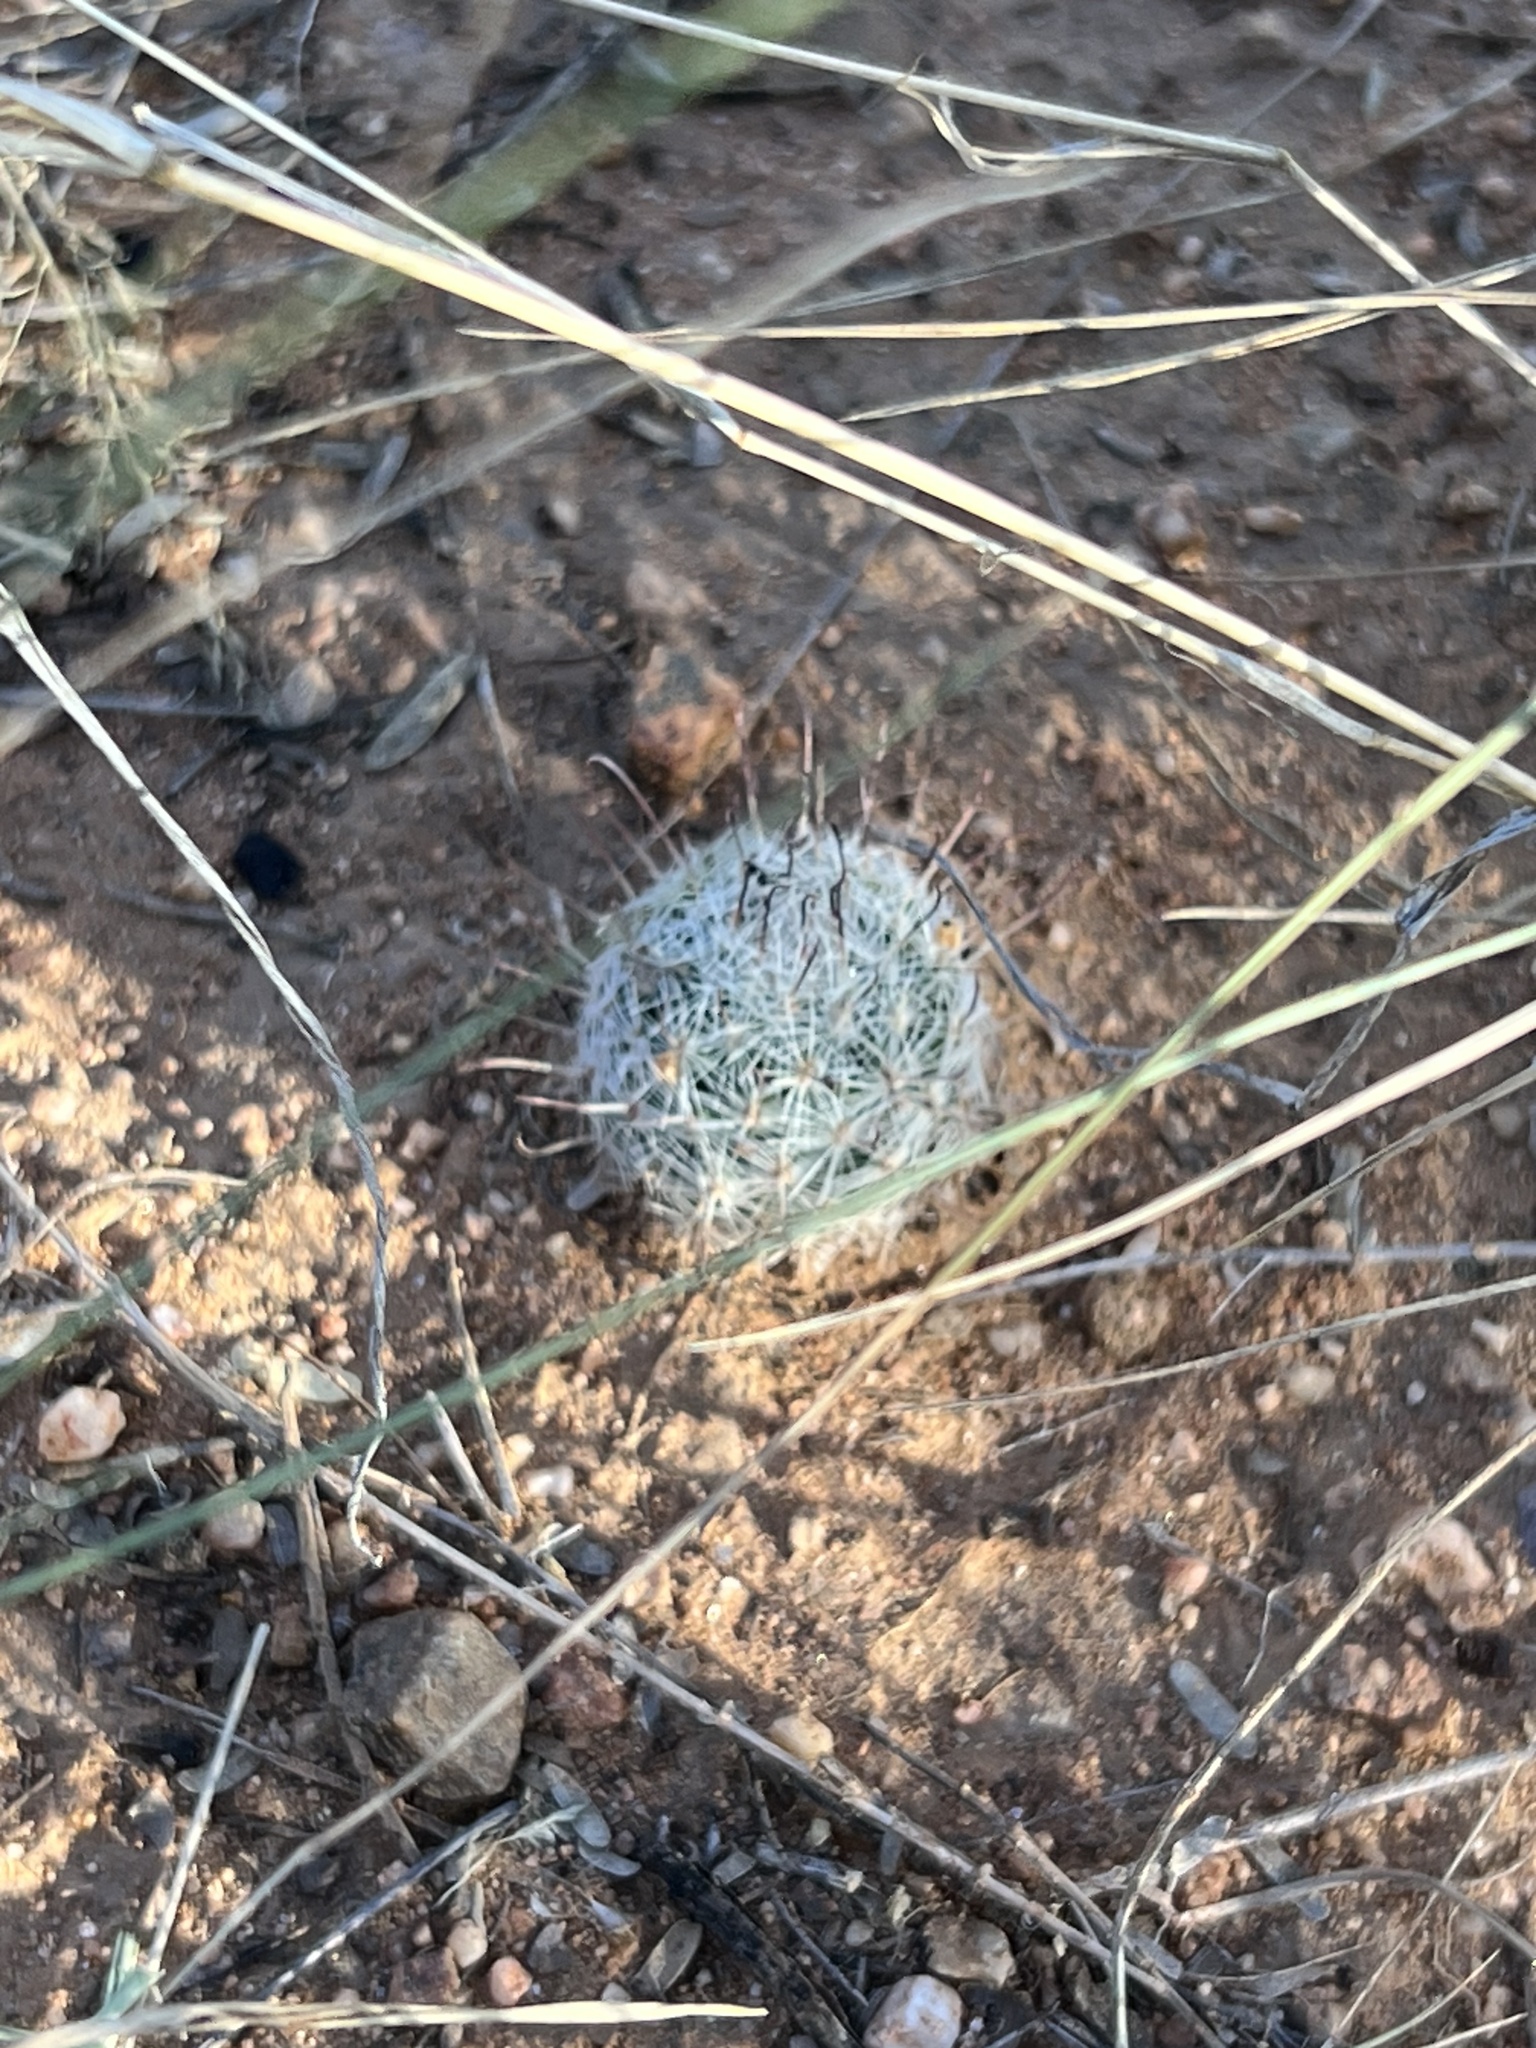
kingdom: Plantae
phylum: Tracheophyta
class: Magnoliopsida
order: Caryophyllales
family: Cactaceae
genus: Cochemiea
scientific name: Cochemiea grahamii
